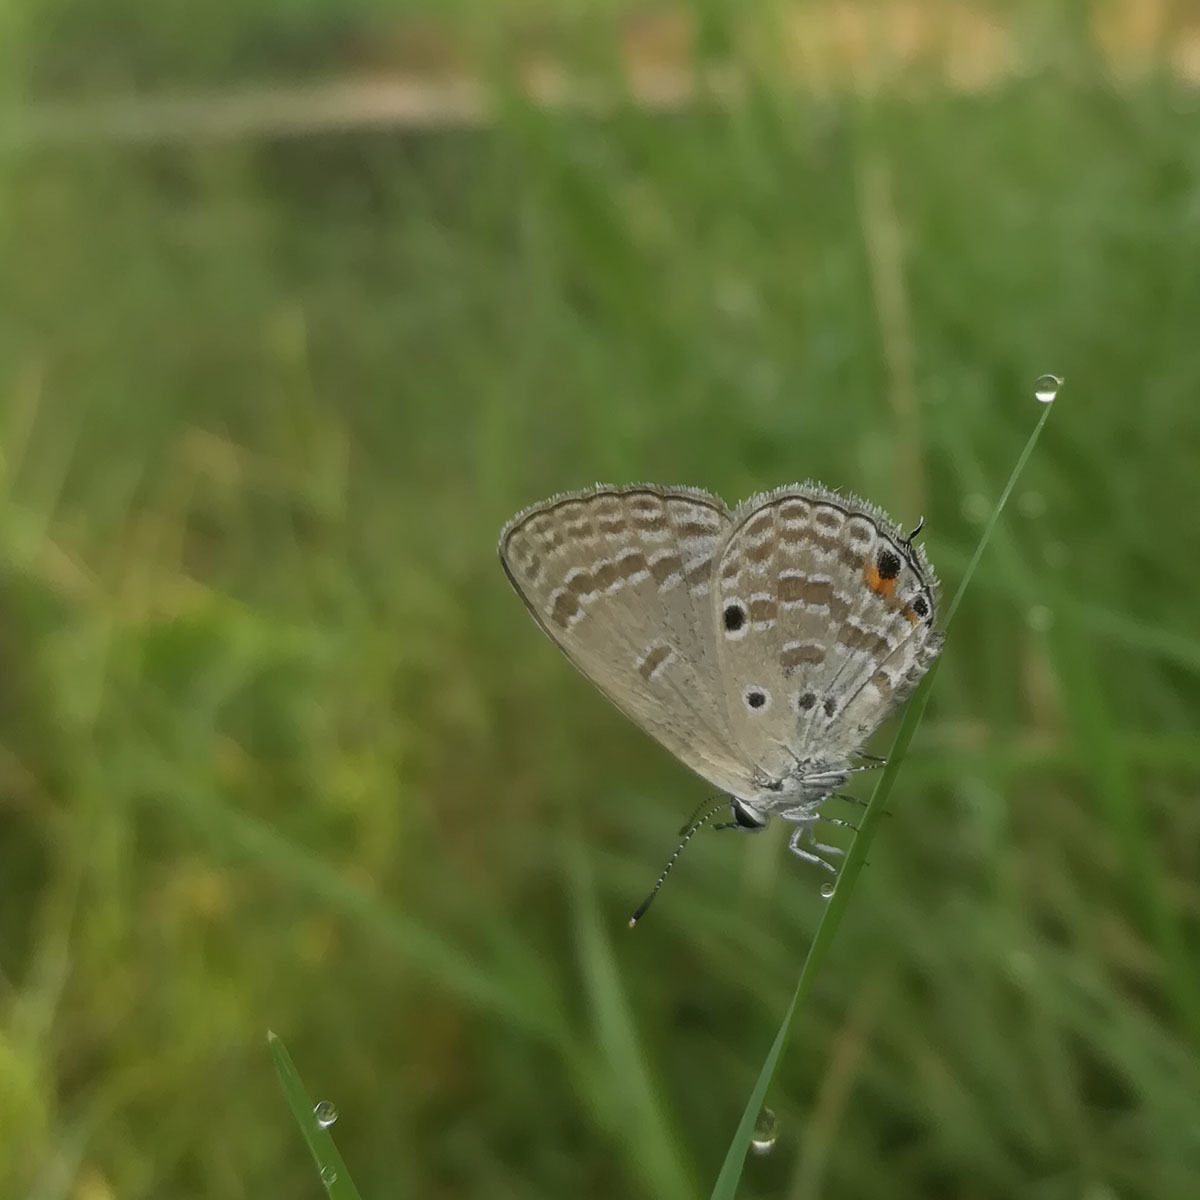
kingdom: Animalia
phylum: Arthropoda
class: Insecta
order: Lepidoptera
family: Lycaenidae
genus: Luthrodes
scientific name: Luthrodes pandava
